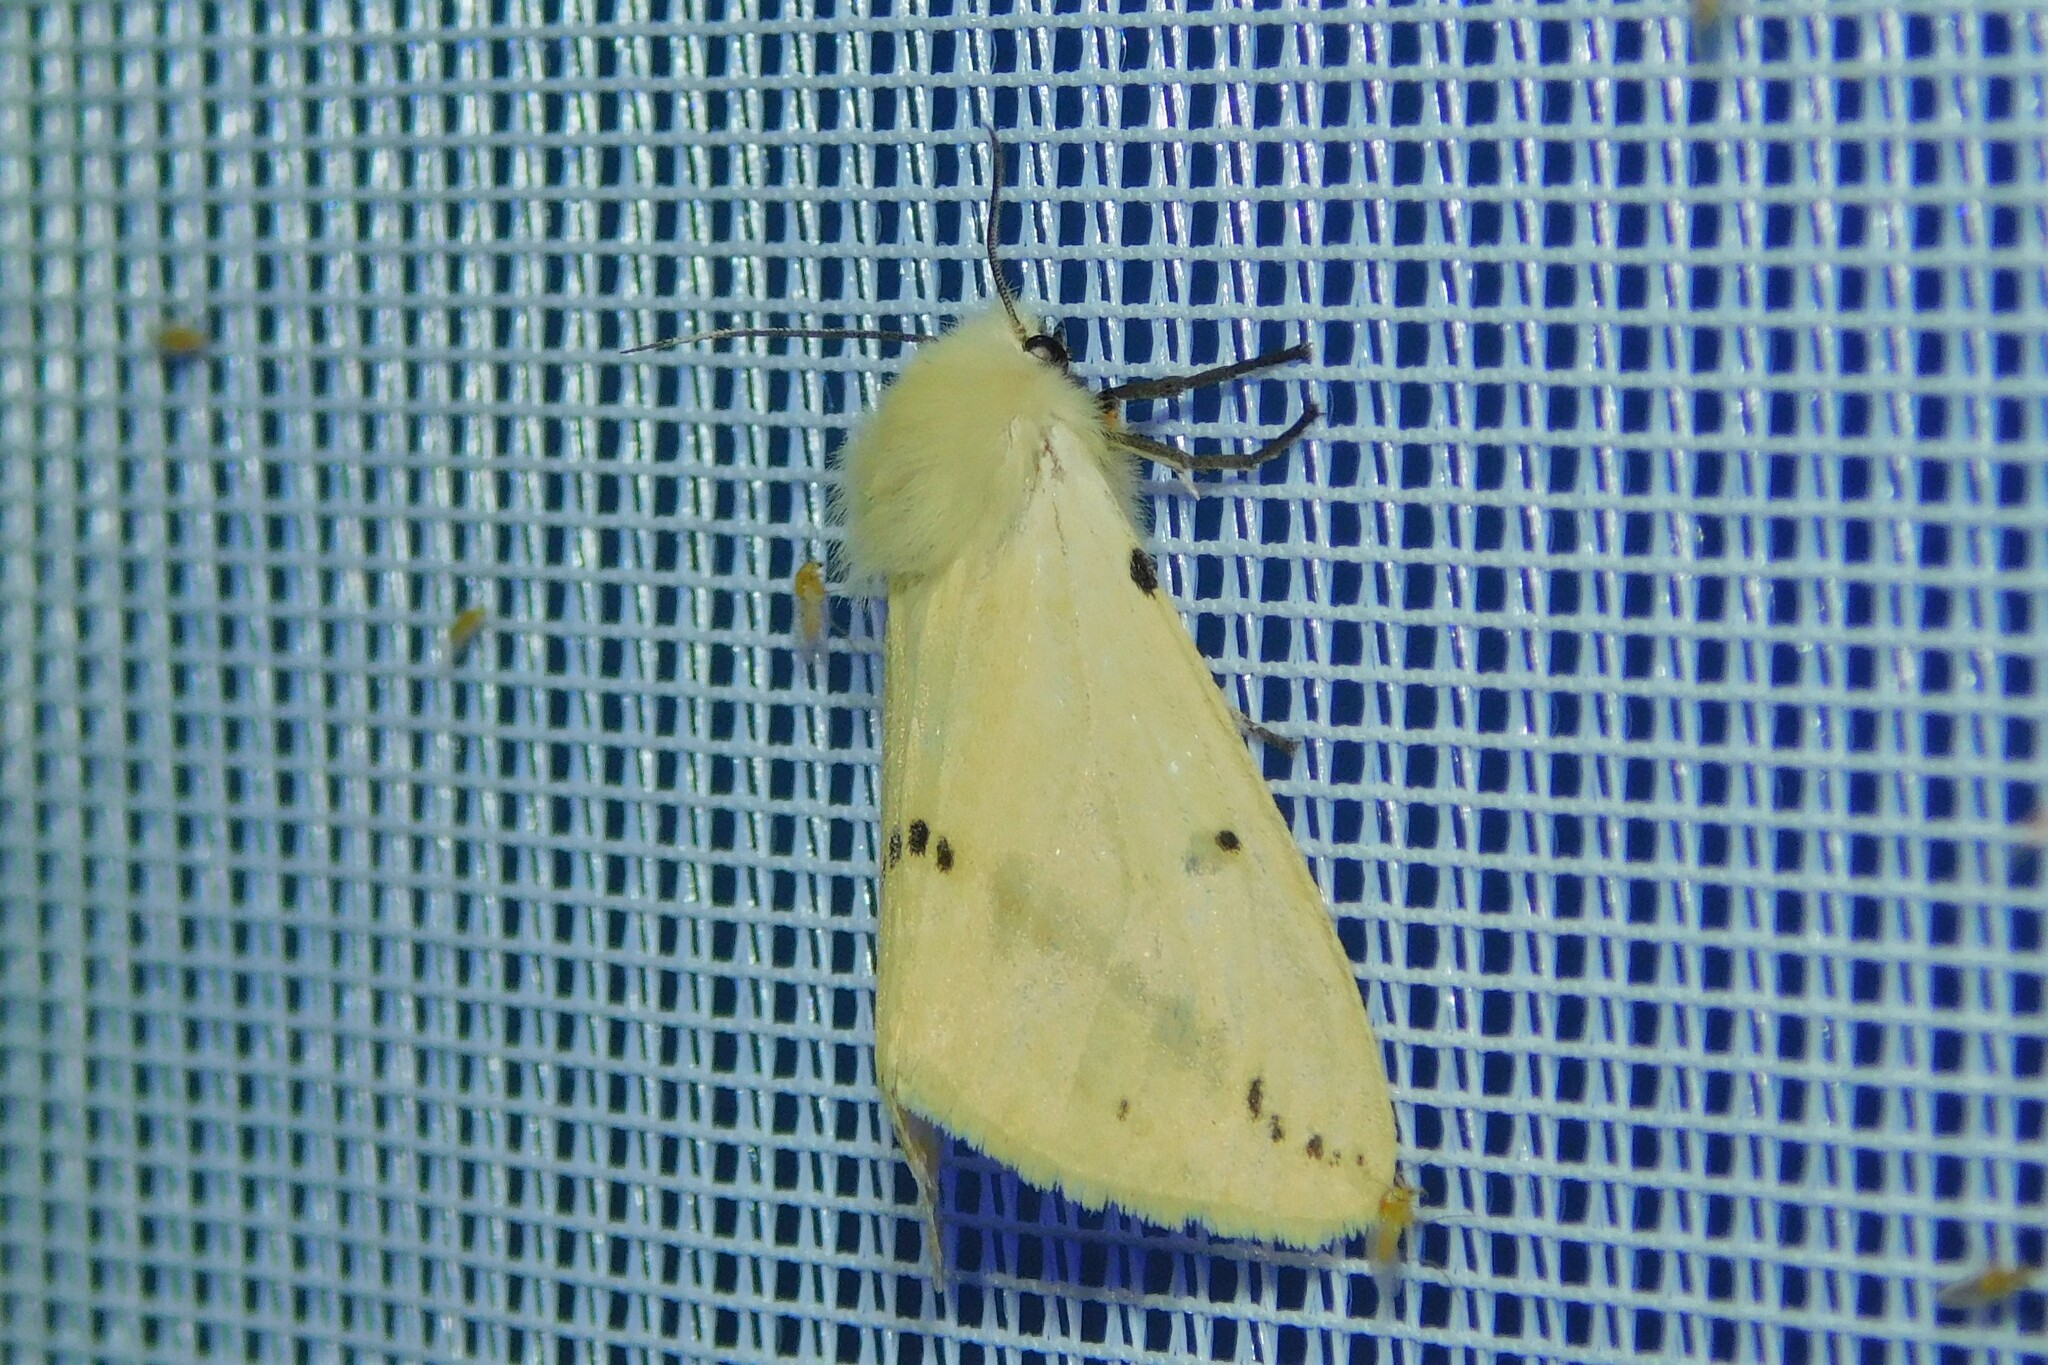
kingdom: Animalia
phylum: Arthropoda
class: Insecta
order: Lepidoptera
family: Erebidae
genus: Spilarctia
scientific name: Spilarctia lutea
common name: Buff ermine
